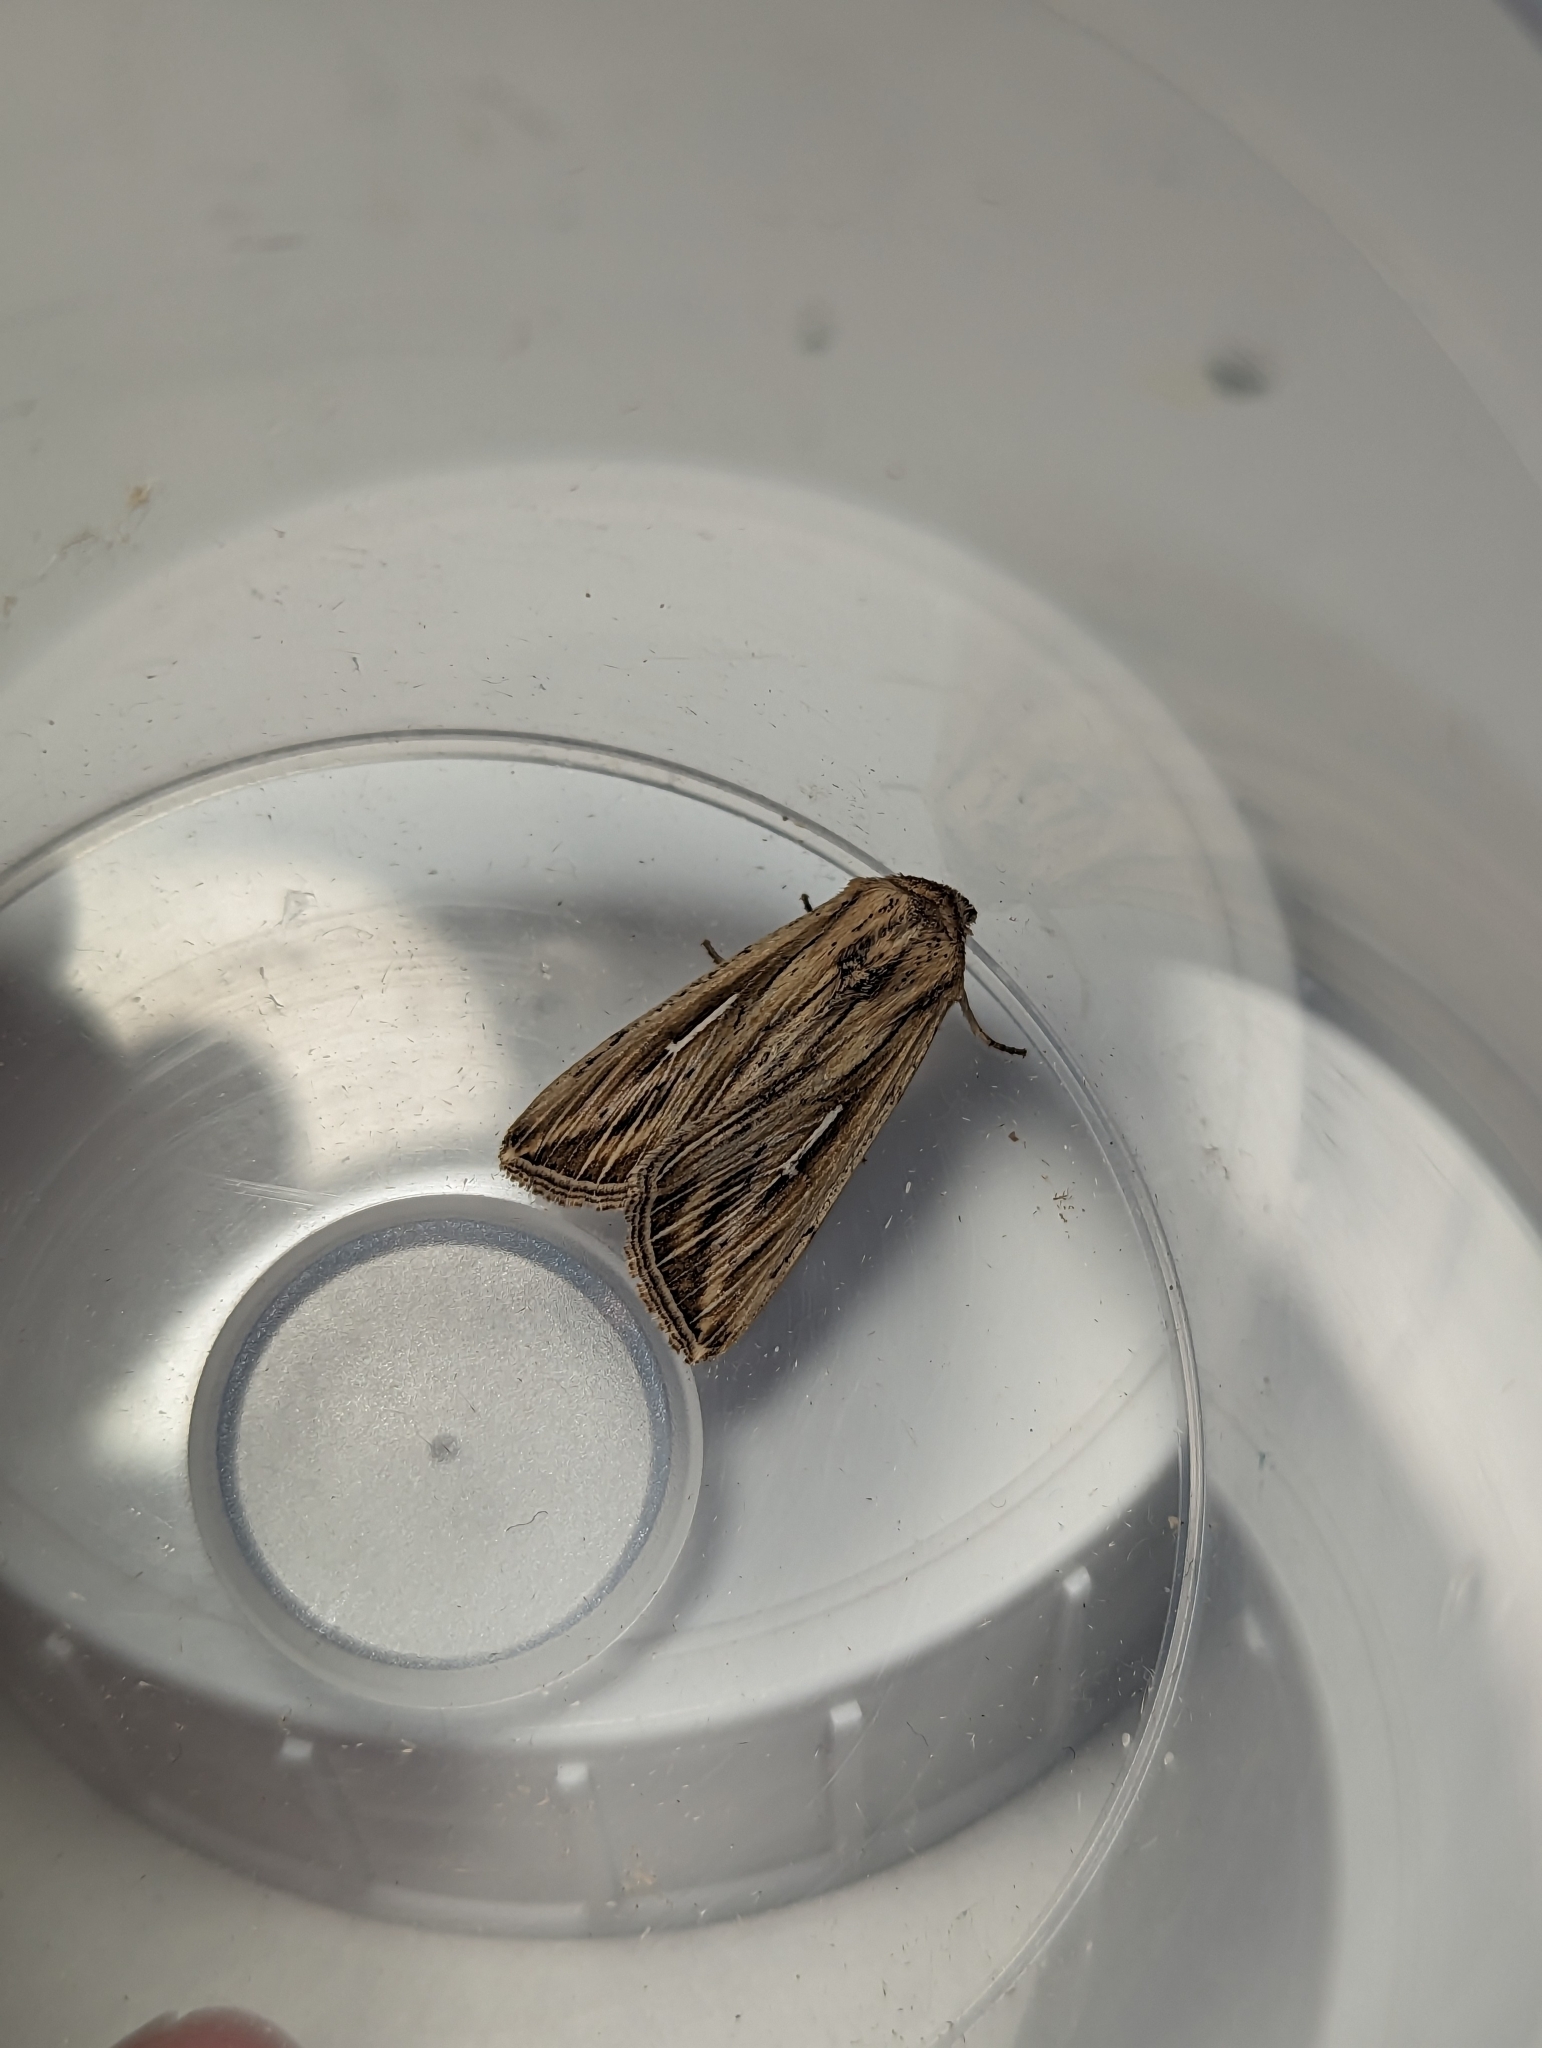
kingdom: Animalia
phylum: Arthropoda
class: Insecta
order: Lepidoptera
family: Noctuidae
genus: Mythimna
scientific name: Mythimna l-album
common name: L-album wainscot
